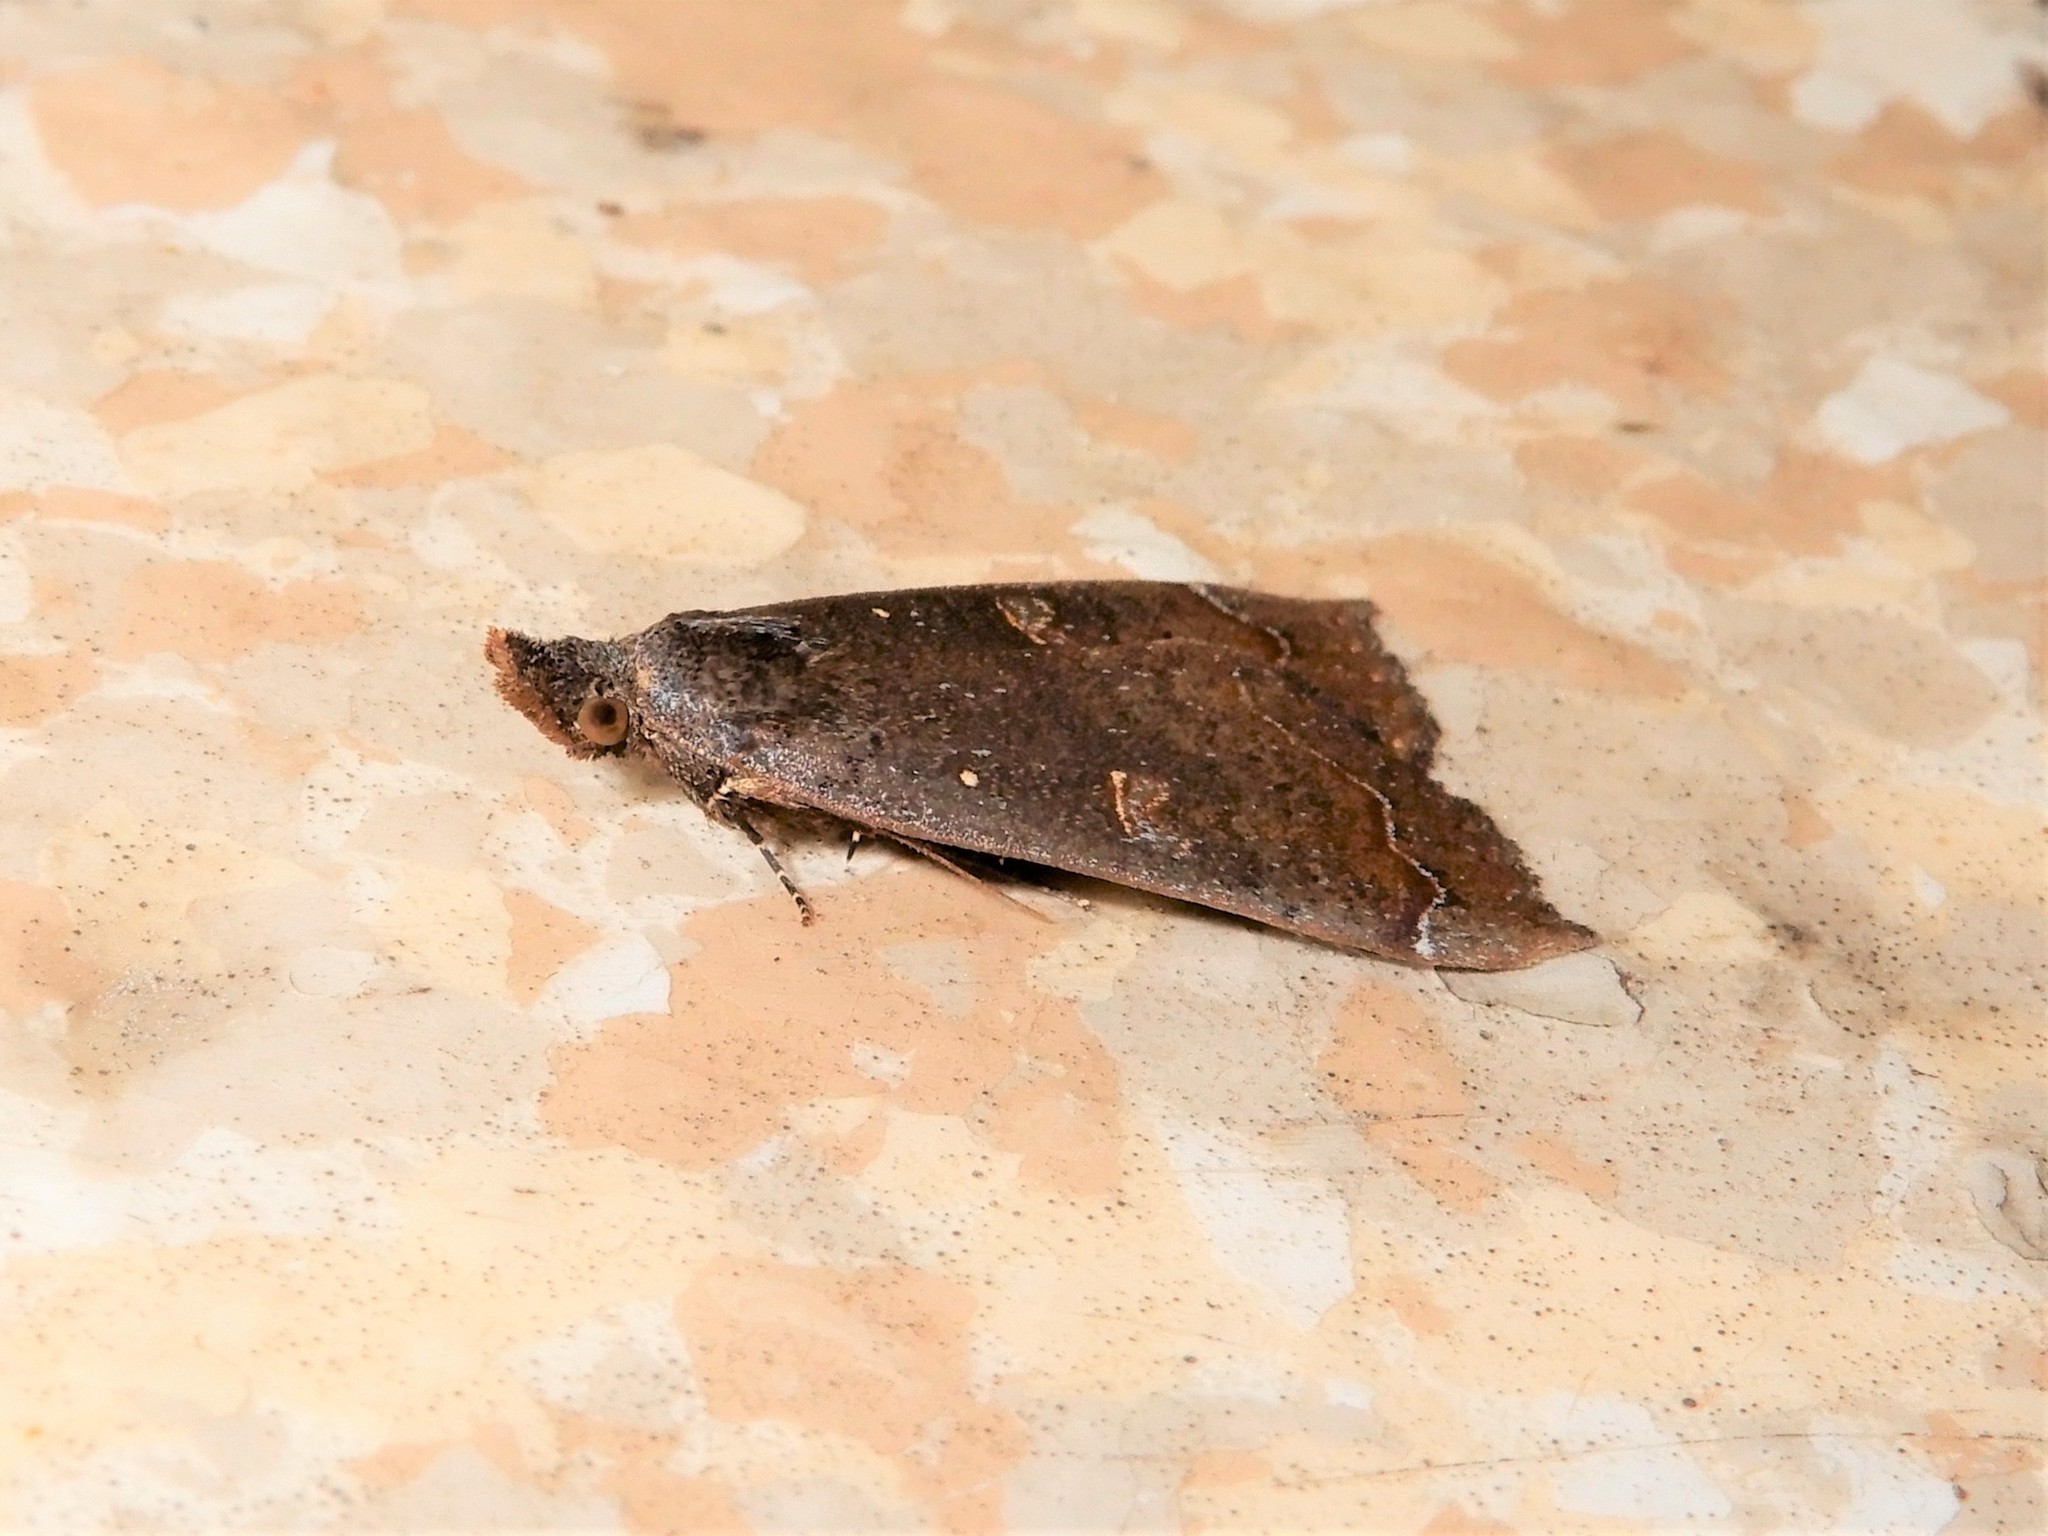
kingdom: Animalia
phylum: Arthropoda
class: Insecta
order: Lepidoptera
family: Erebidae
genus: Rhapsa
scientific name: Rhapsa scotosialis
